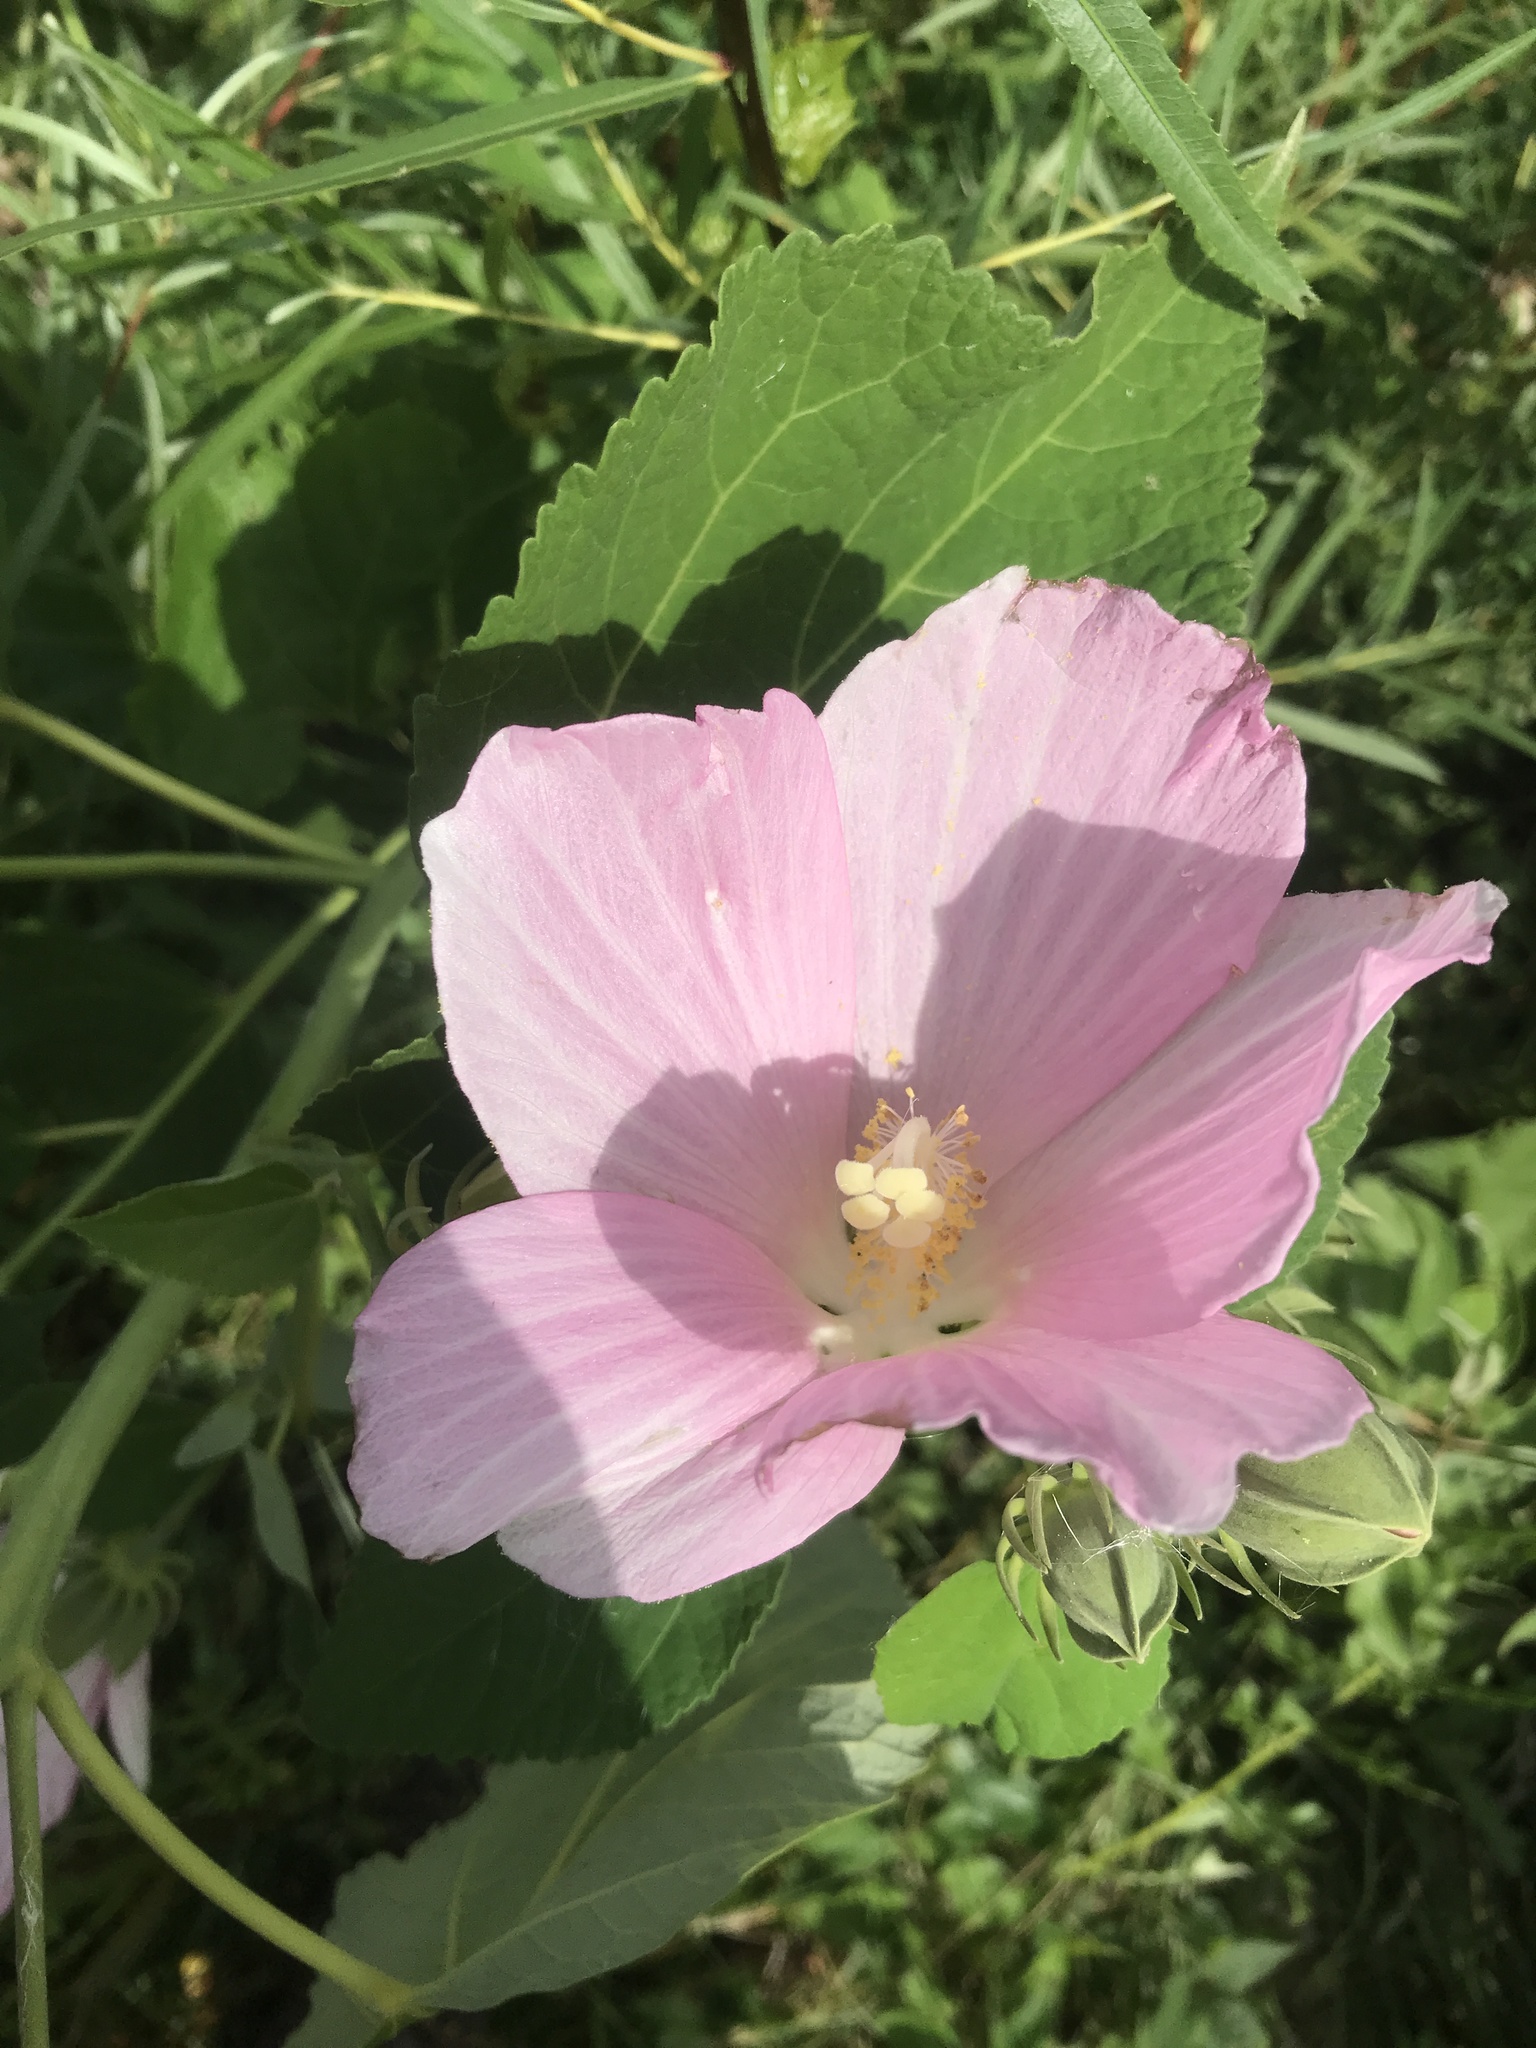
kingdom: Plantae
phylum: Tracheophyta
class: Magnoliopsida
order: Malvales
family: Malvaceae
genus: Hibiscus
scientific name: Hibiscus moscheutos
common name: Common rose-mallow
